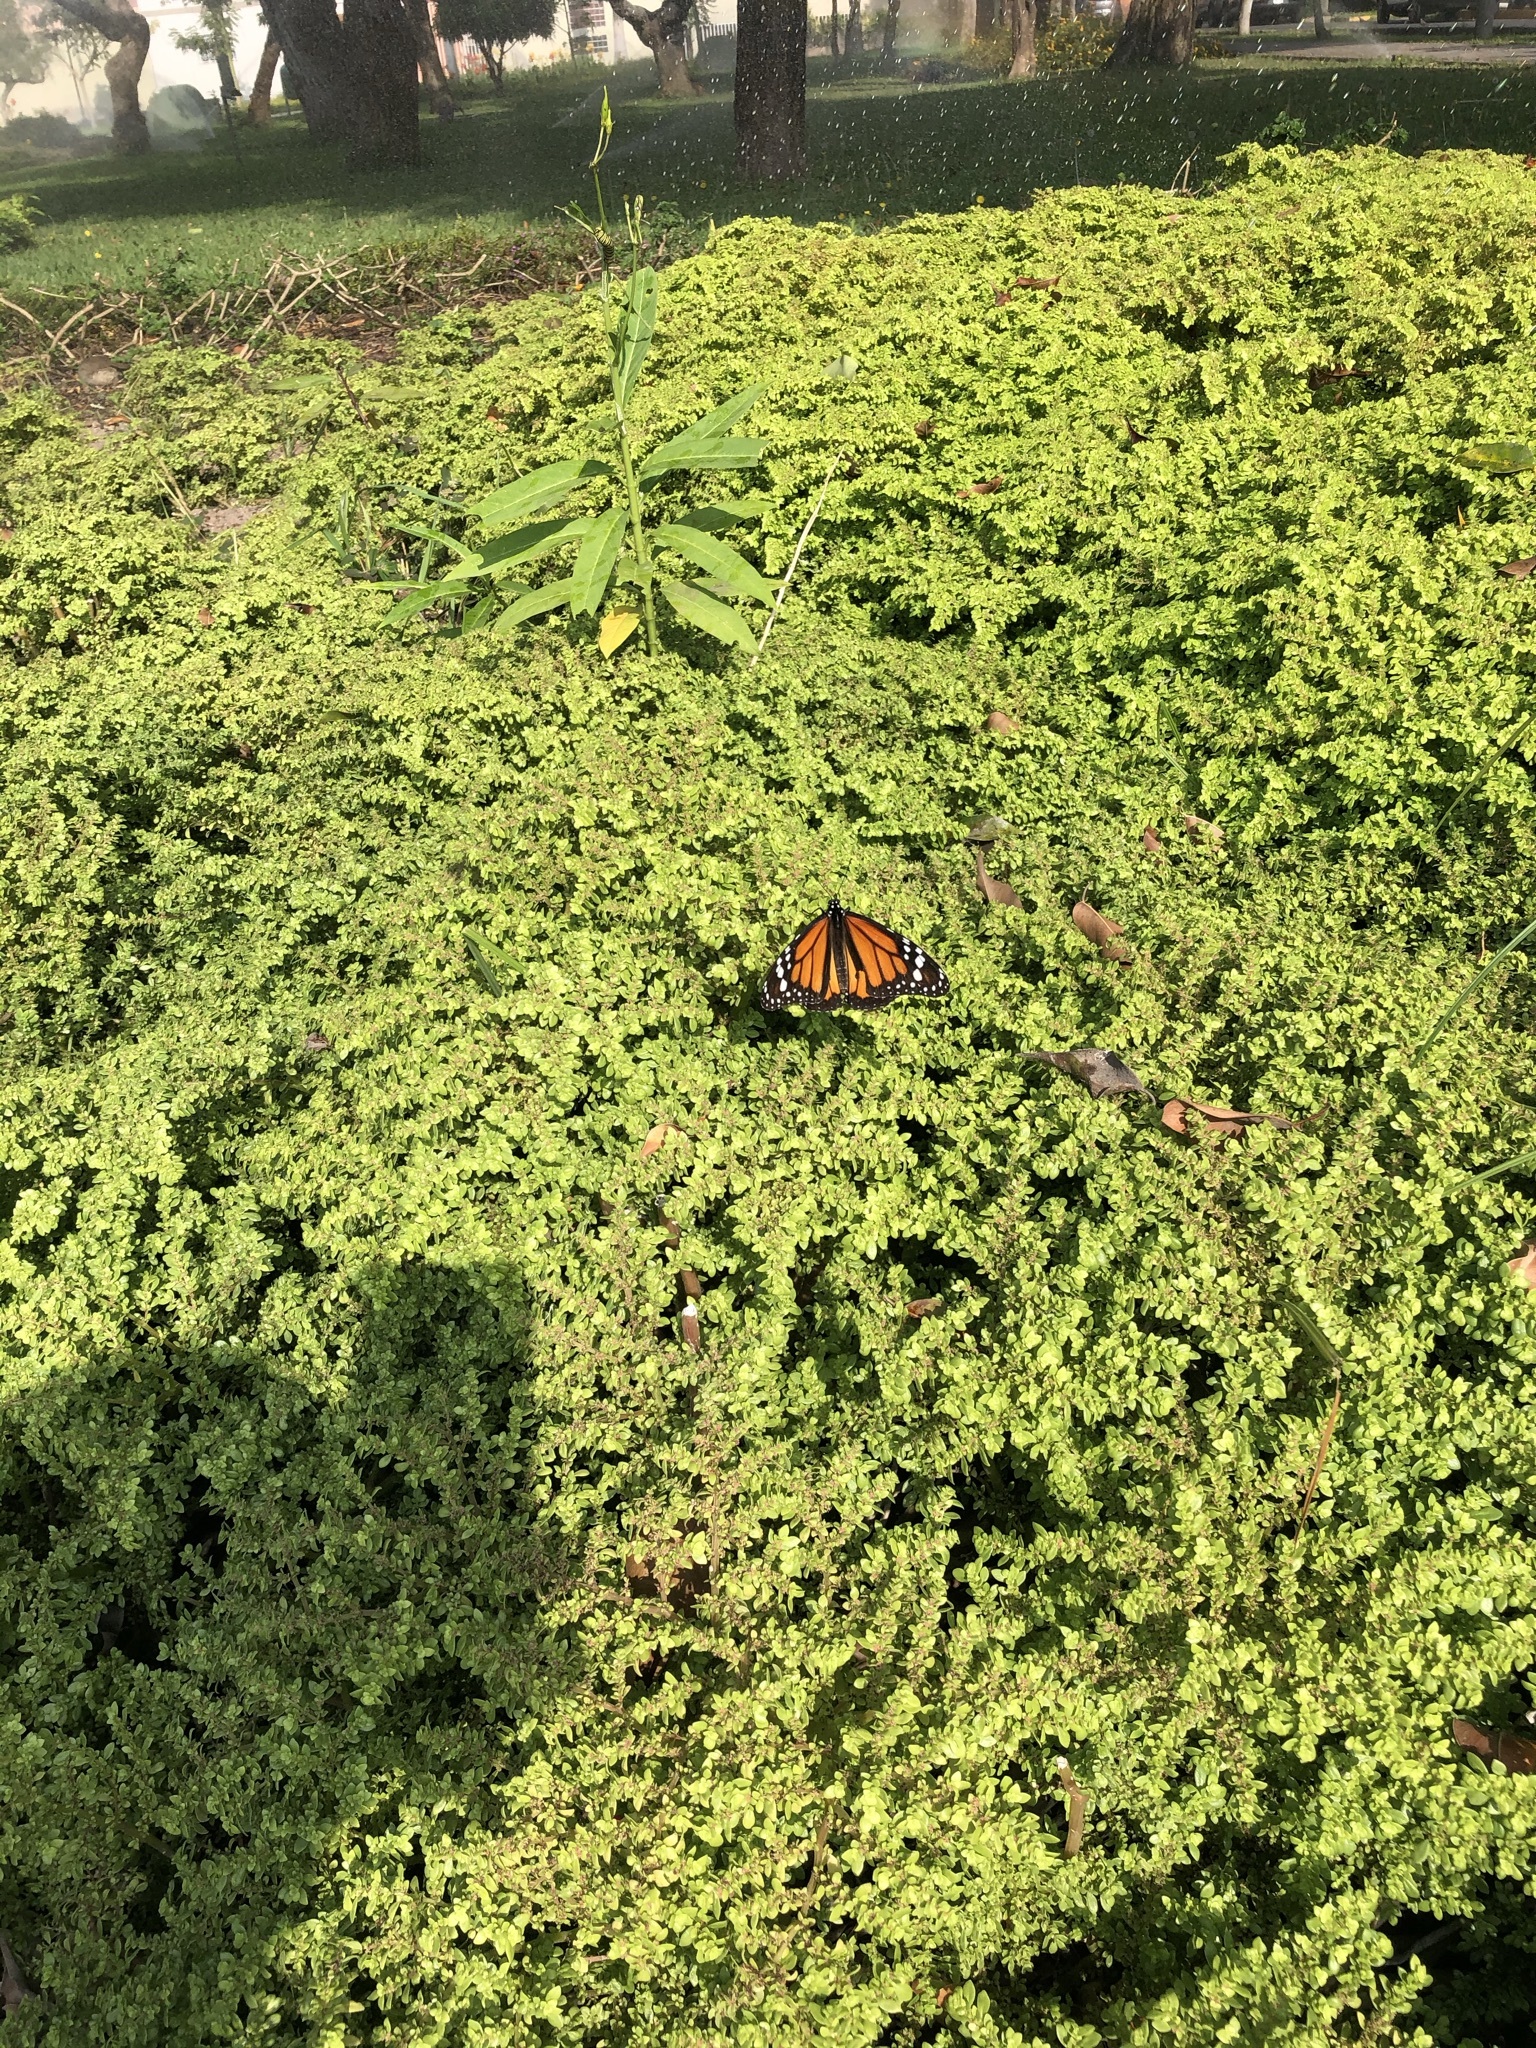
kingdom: Animalia
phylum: Arthropoda
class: Insecta
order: Lepidoptera
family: Nymphalidae
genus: Danaus
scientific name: Danaus plexippus
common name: Monarch
